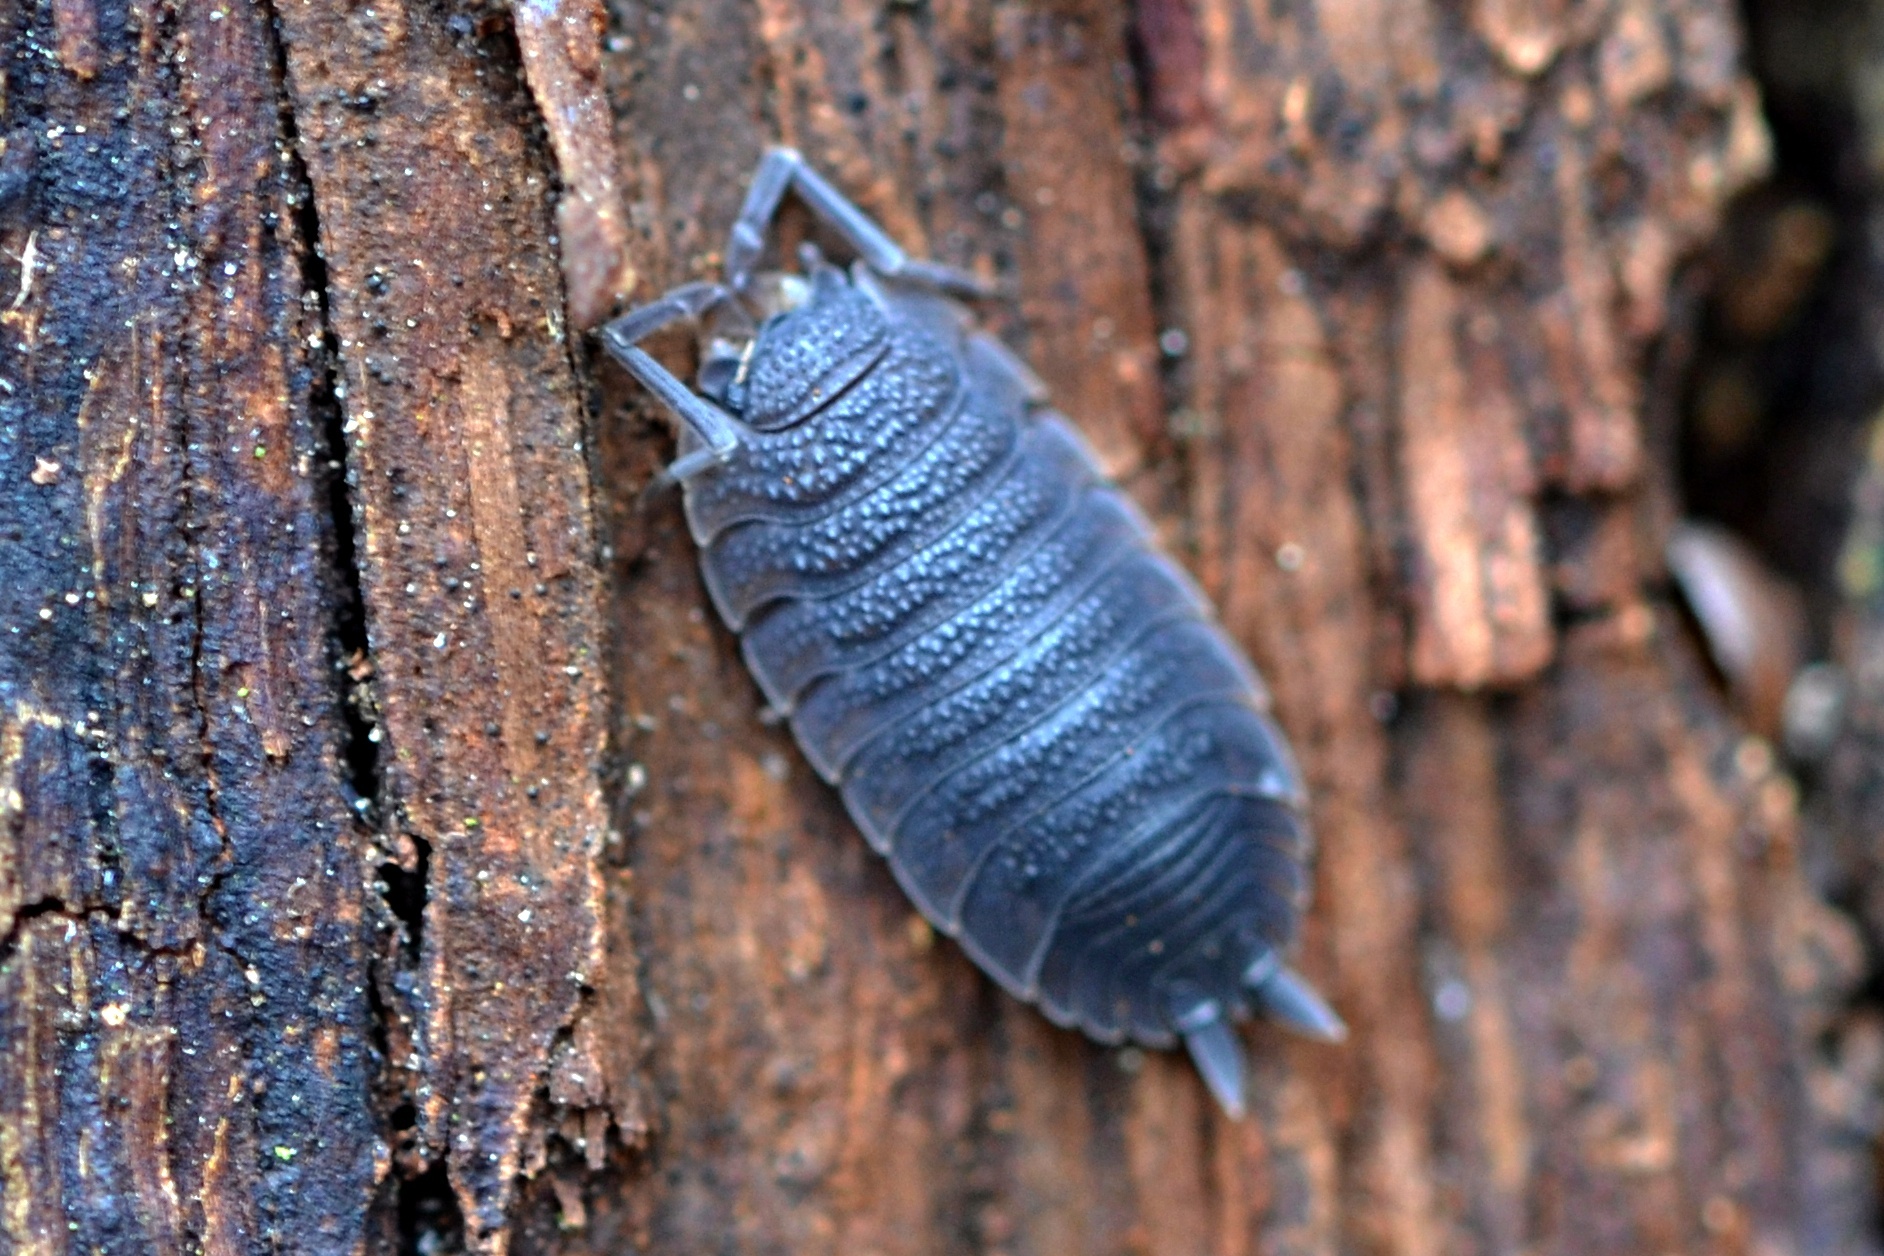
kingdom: Animalia
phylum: Arthropoda
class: Malacostraca
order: Isopoda
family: Porcellionidae
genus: Porcellio
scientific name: Porcellio scaber
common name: Common rough woodlouse
